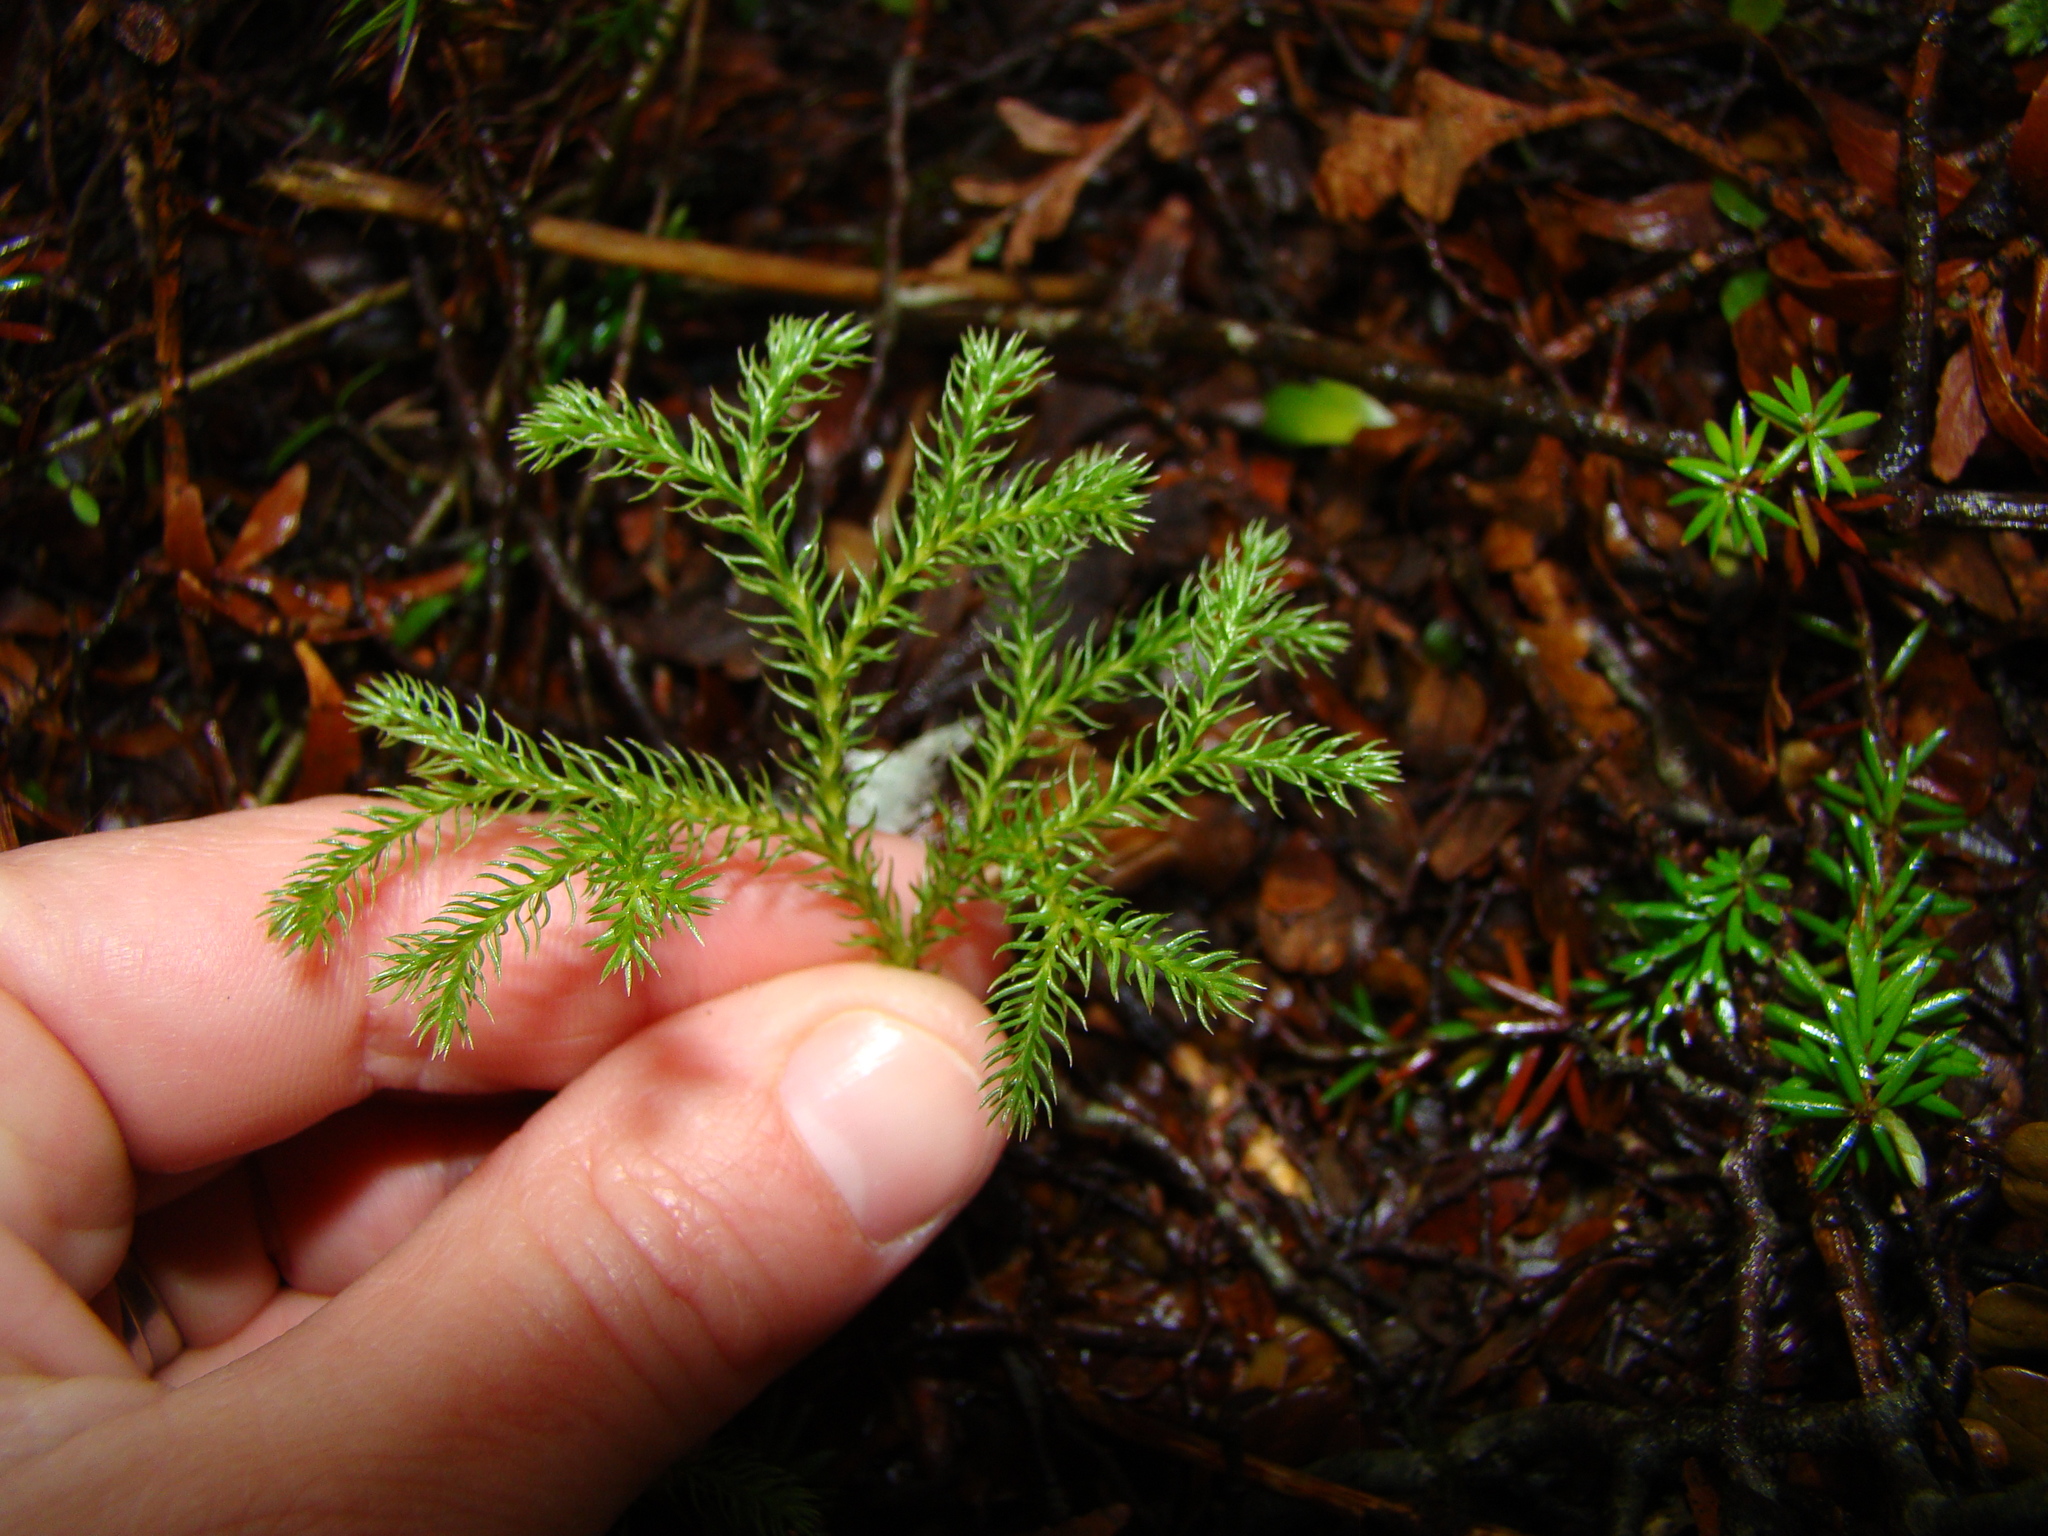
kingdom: Plantae
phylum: Tracheophyta
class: Lycopodiopsida
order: Lycopodiales
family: Lycopodiaceae
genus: Austrolycopodium
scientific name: Austrolycopodium fastigiatum
